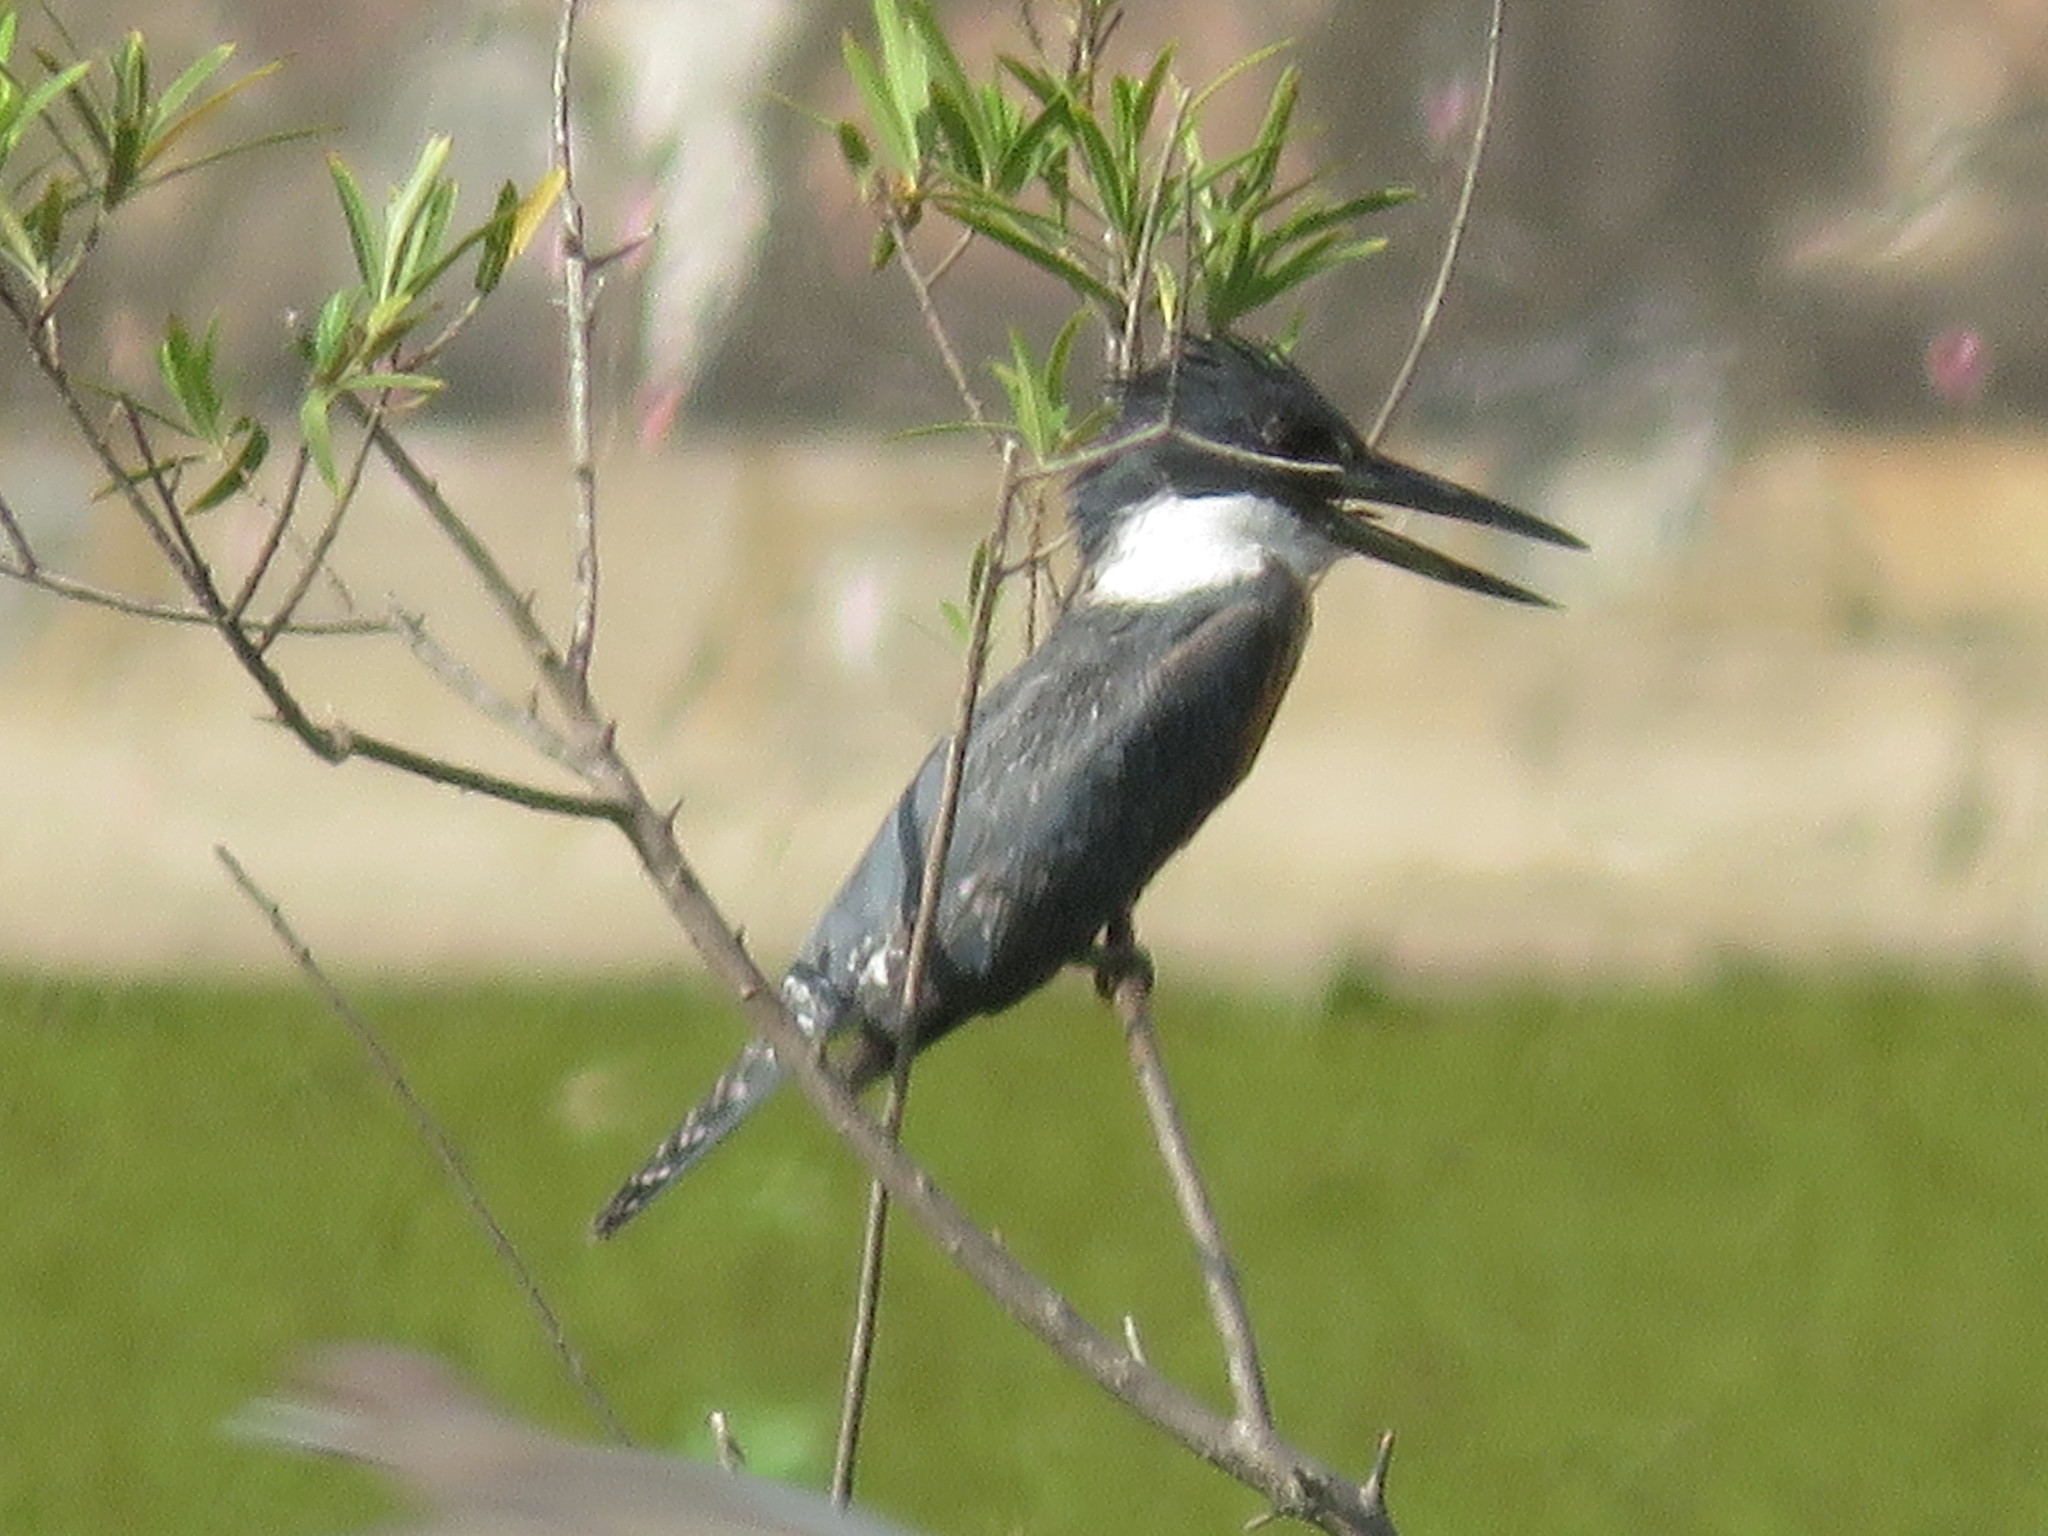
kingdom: Animalia
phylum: Chordata
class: Aves
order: Coraciiformes
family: Alcedinidae
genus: Megaceryle
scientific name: Megaceryle torquata
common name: Ringed kingfisher
